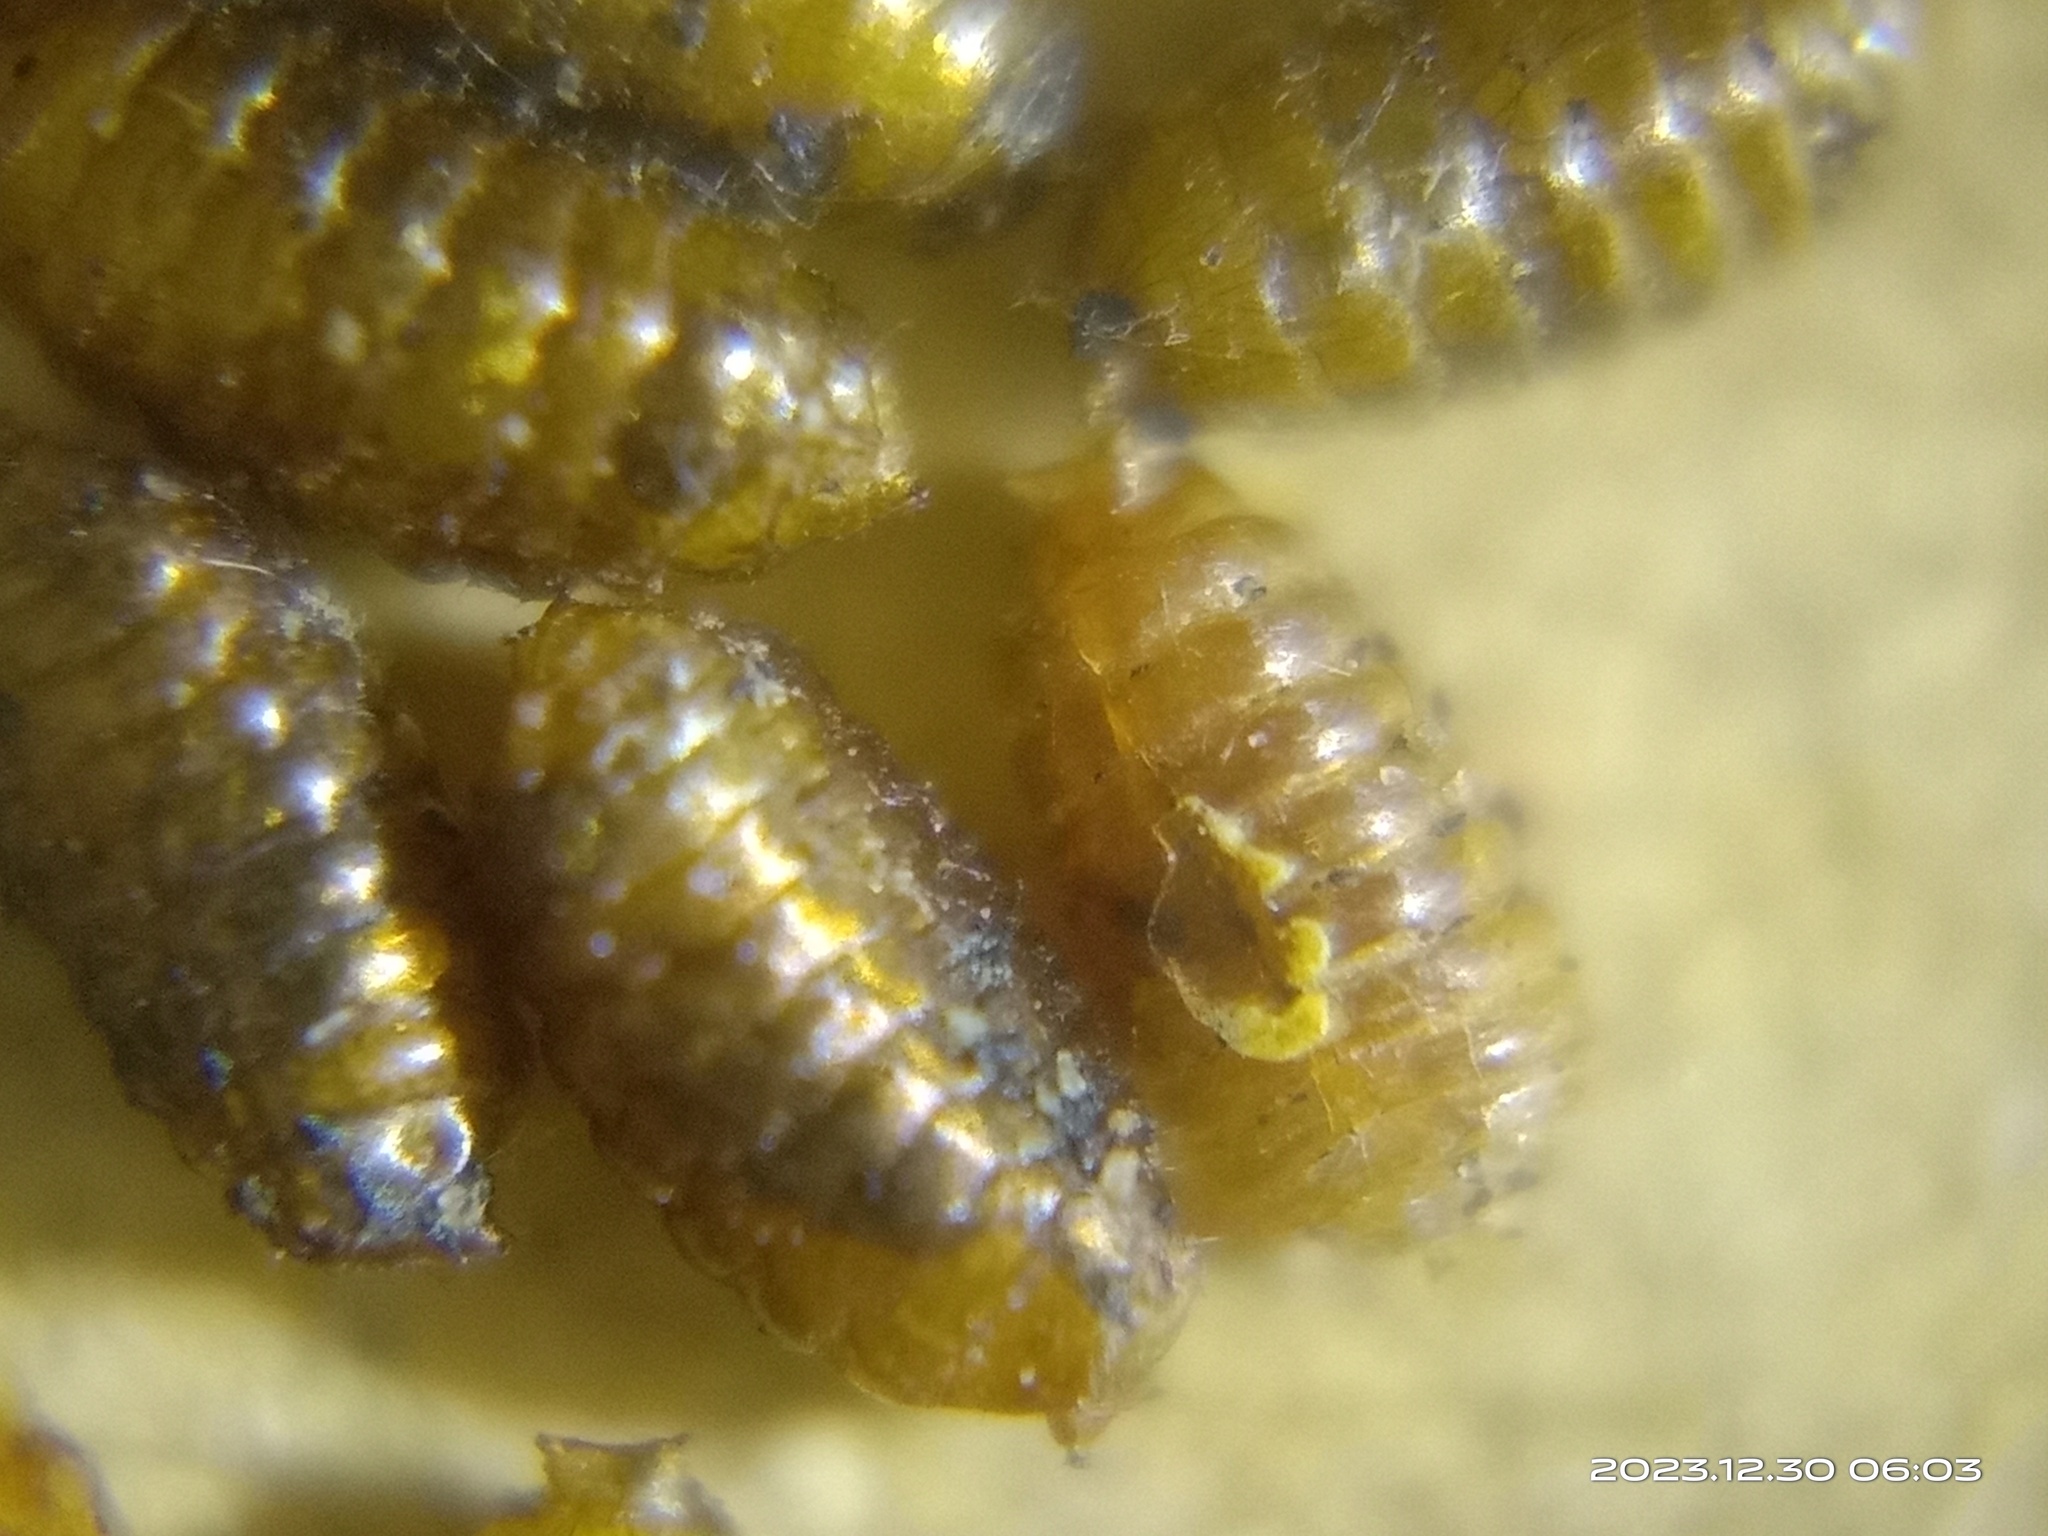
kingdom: Animalia
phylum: Arthropoda
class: Insecta
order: Diptera
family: Agromyzidae
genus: Liriomyza
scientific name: Liriomyza bryoniae
